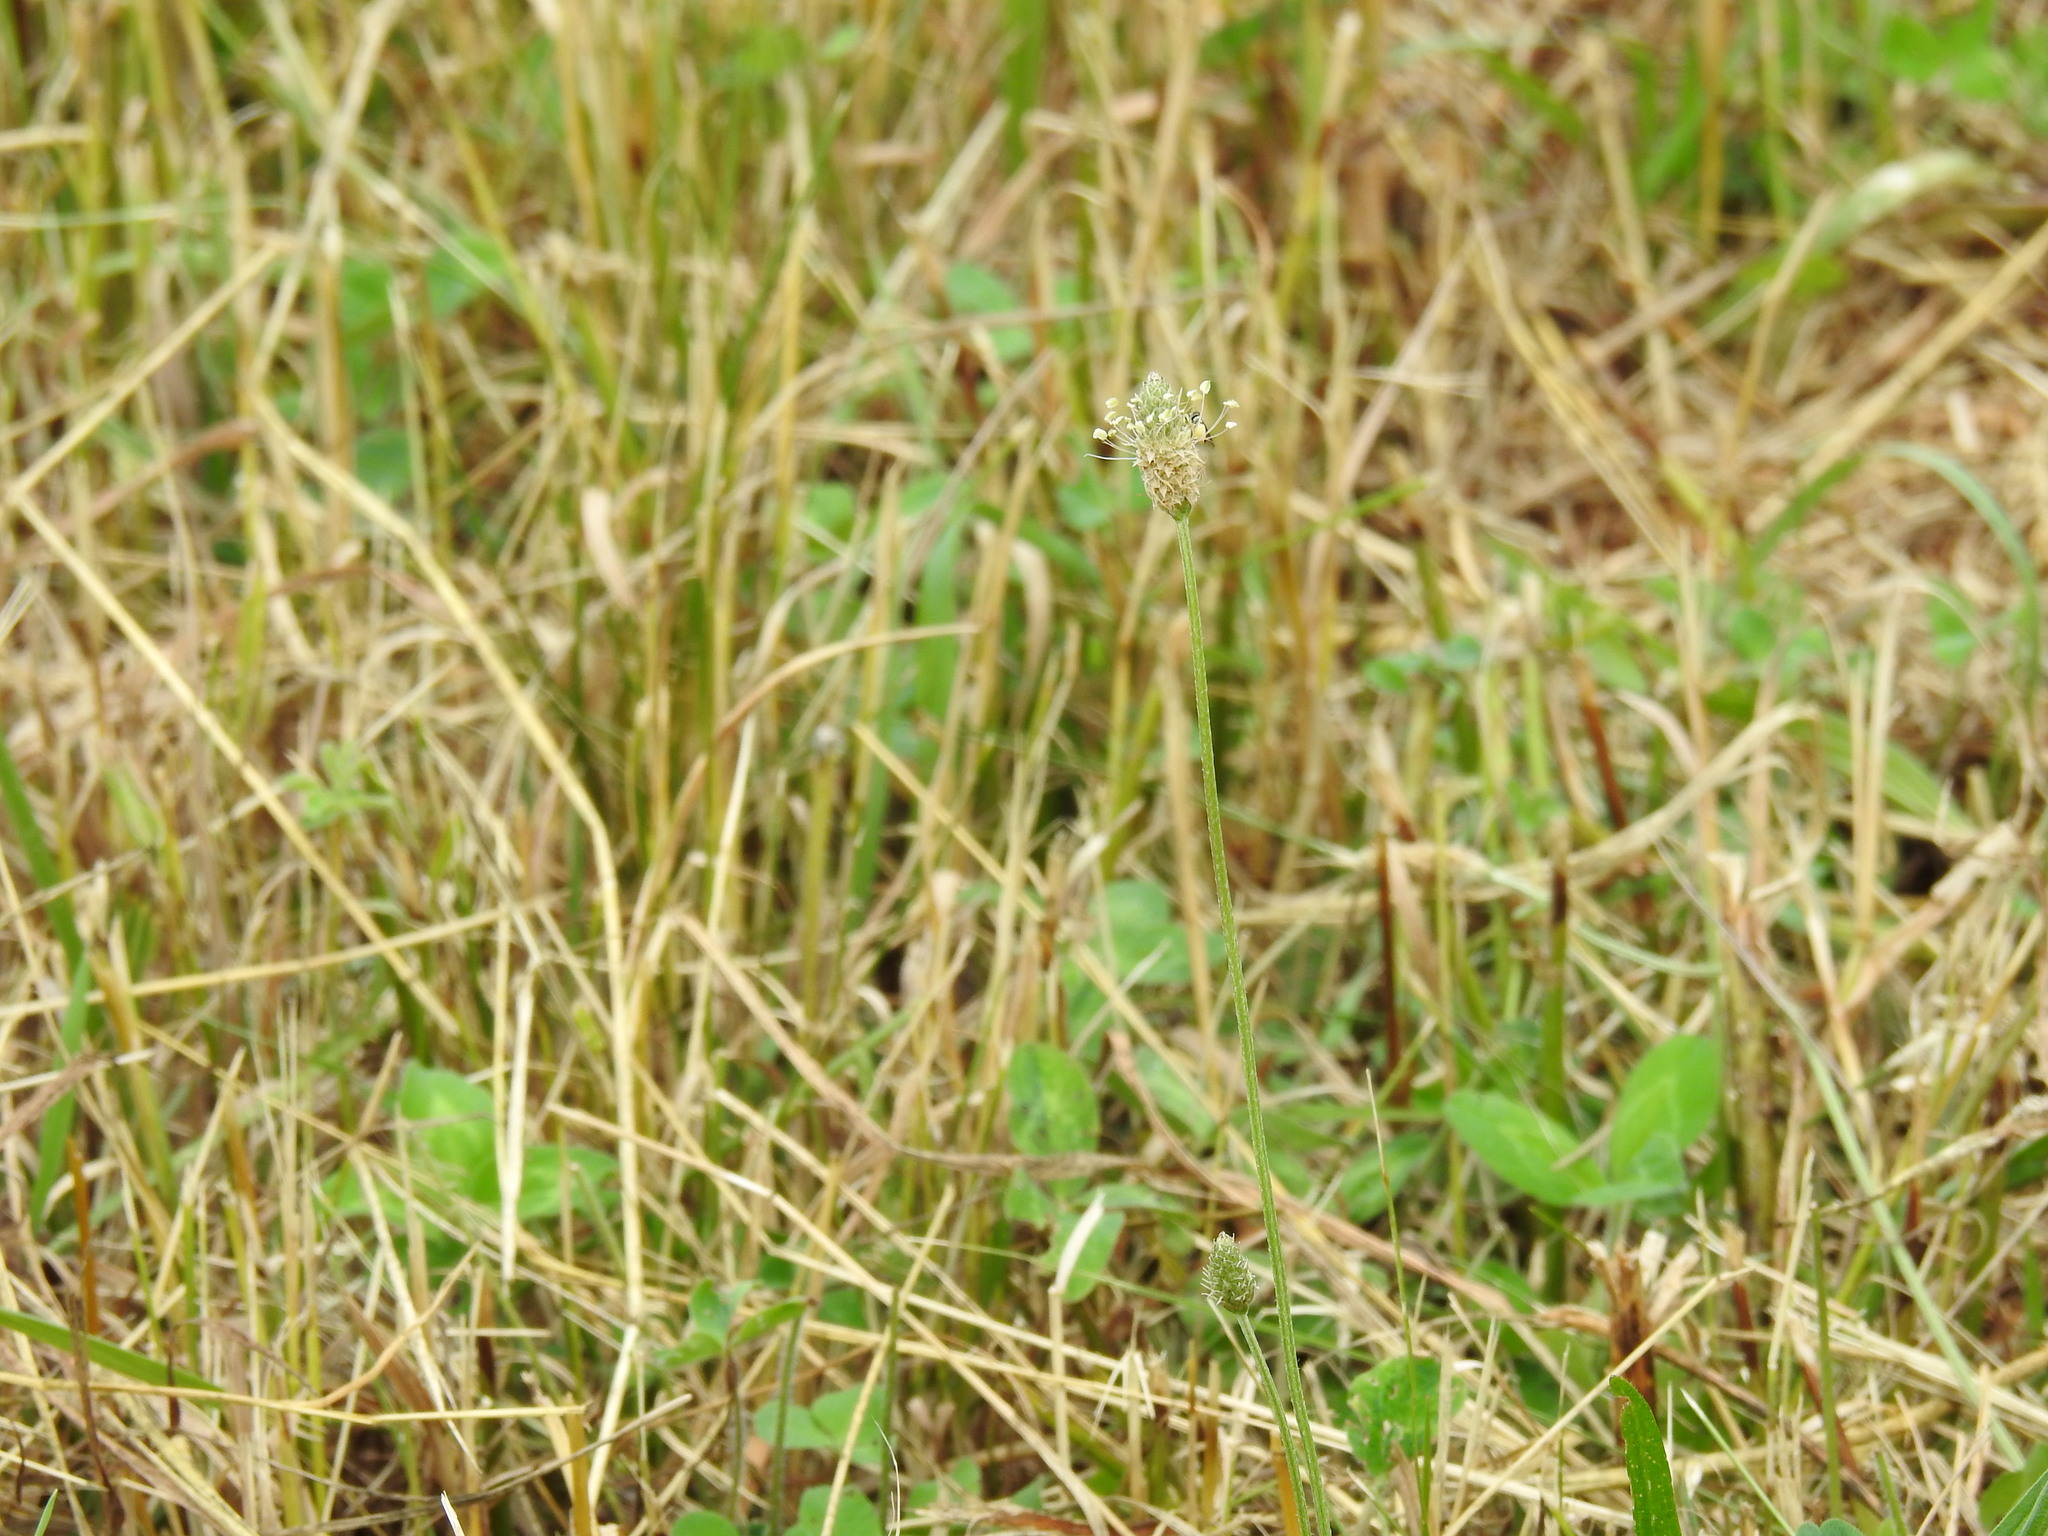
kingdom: Plantae
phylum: Tracheophyta
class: Magnoliopsida
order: Lamiales
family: Plantaginaceae
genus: Plantago
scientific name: Plantago lanceolata
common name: Ribwort plantain
